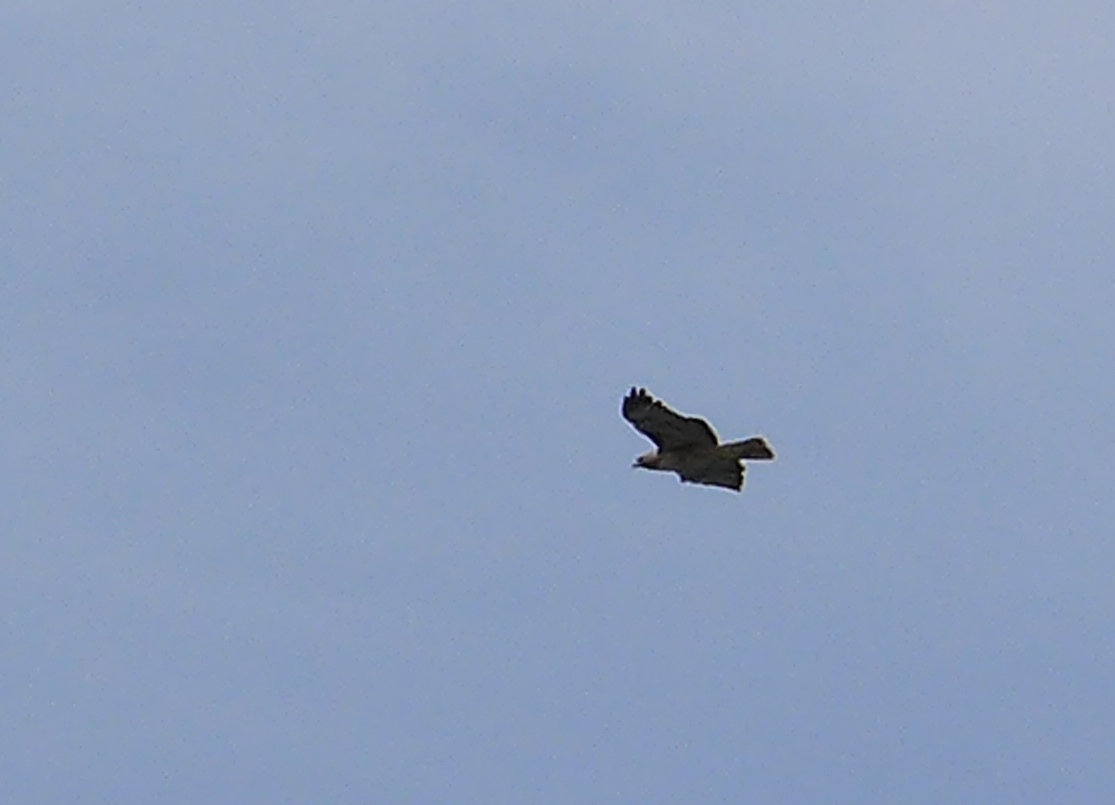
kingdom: Animalia
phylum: Chordata
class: Aves
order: Accipitriformes
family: Accipitridae
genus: Buteo
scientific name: Buteo jamaicensis
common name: Red-tailed hawk
